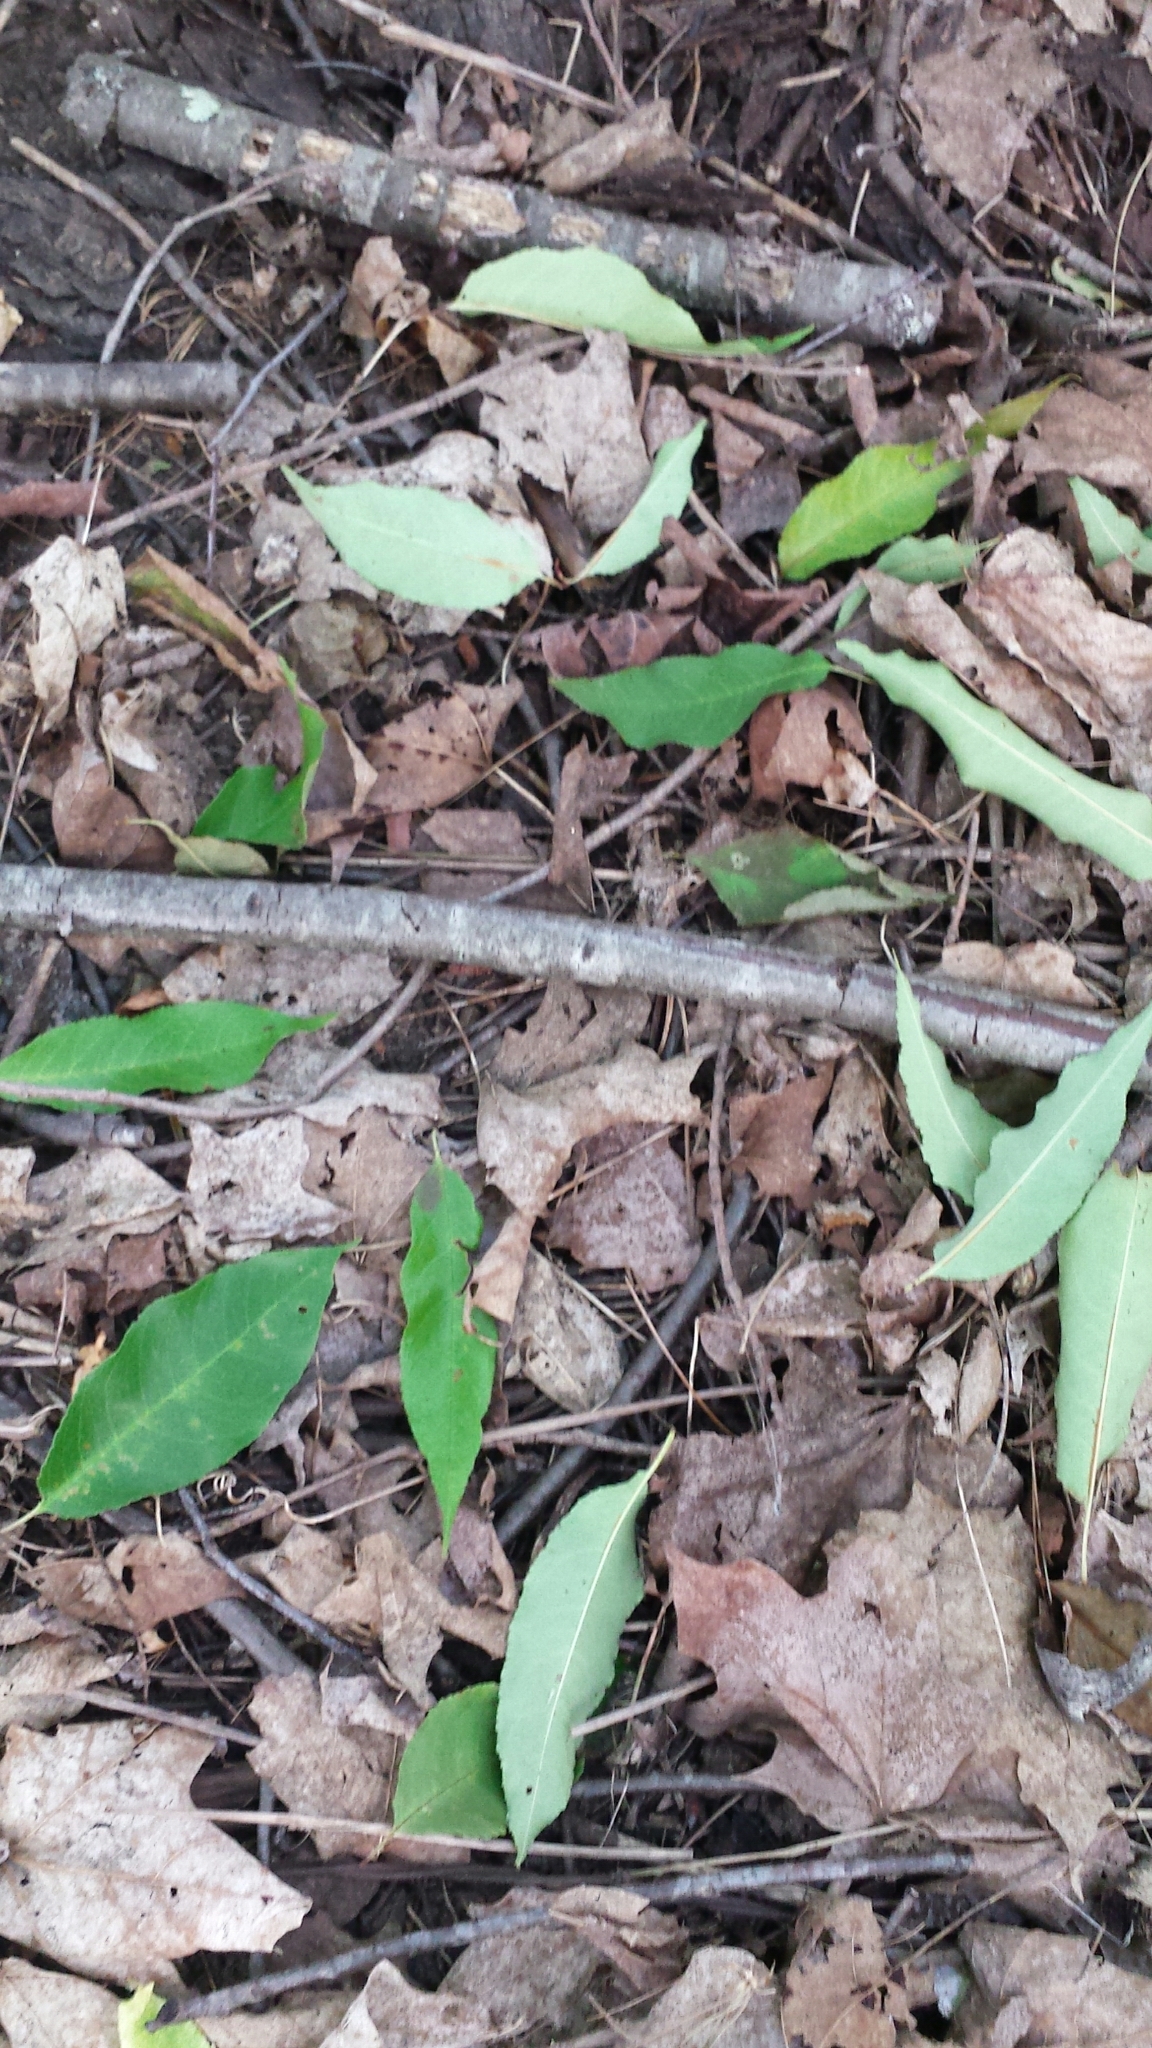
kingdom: Plantae
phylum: Tracheophyta
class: Magnoliopsida
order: Rosales
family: Rosaceae
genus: Prunus
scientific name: Prunus serotina
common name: Black cherry
